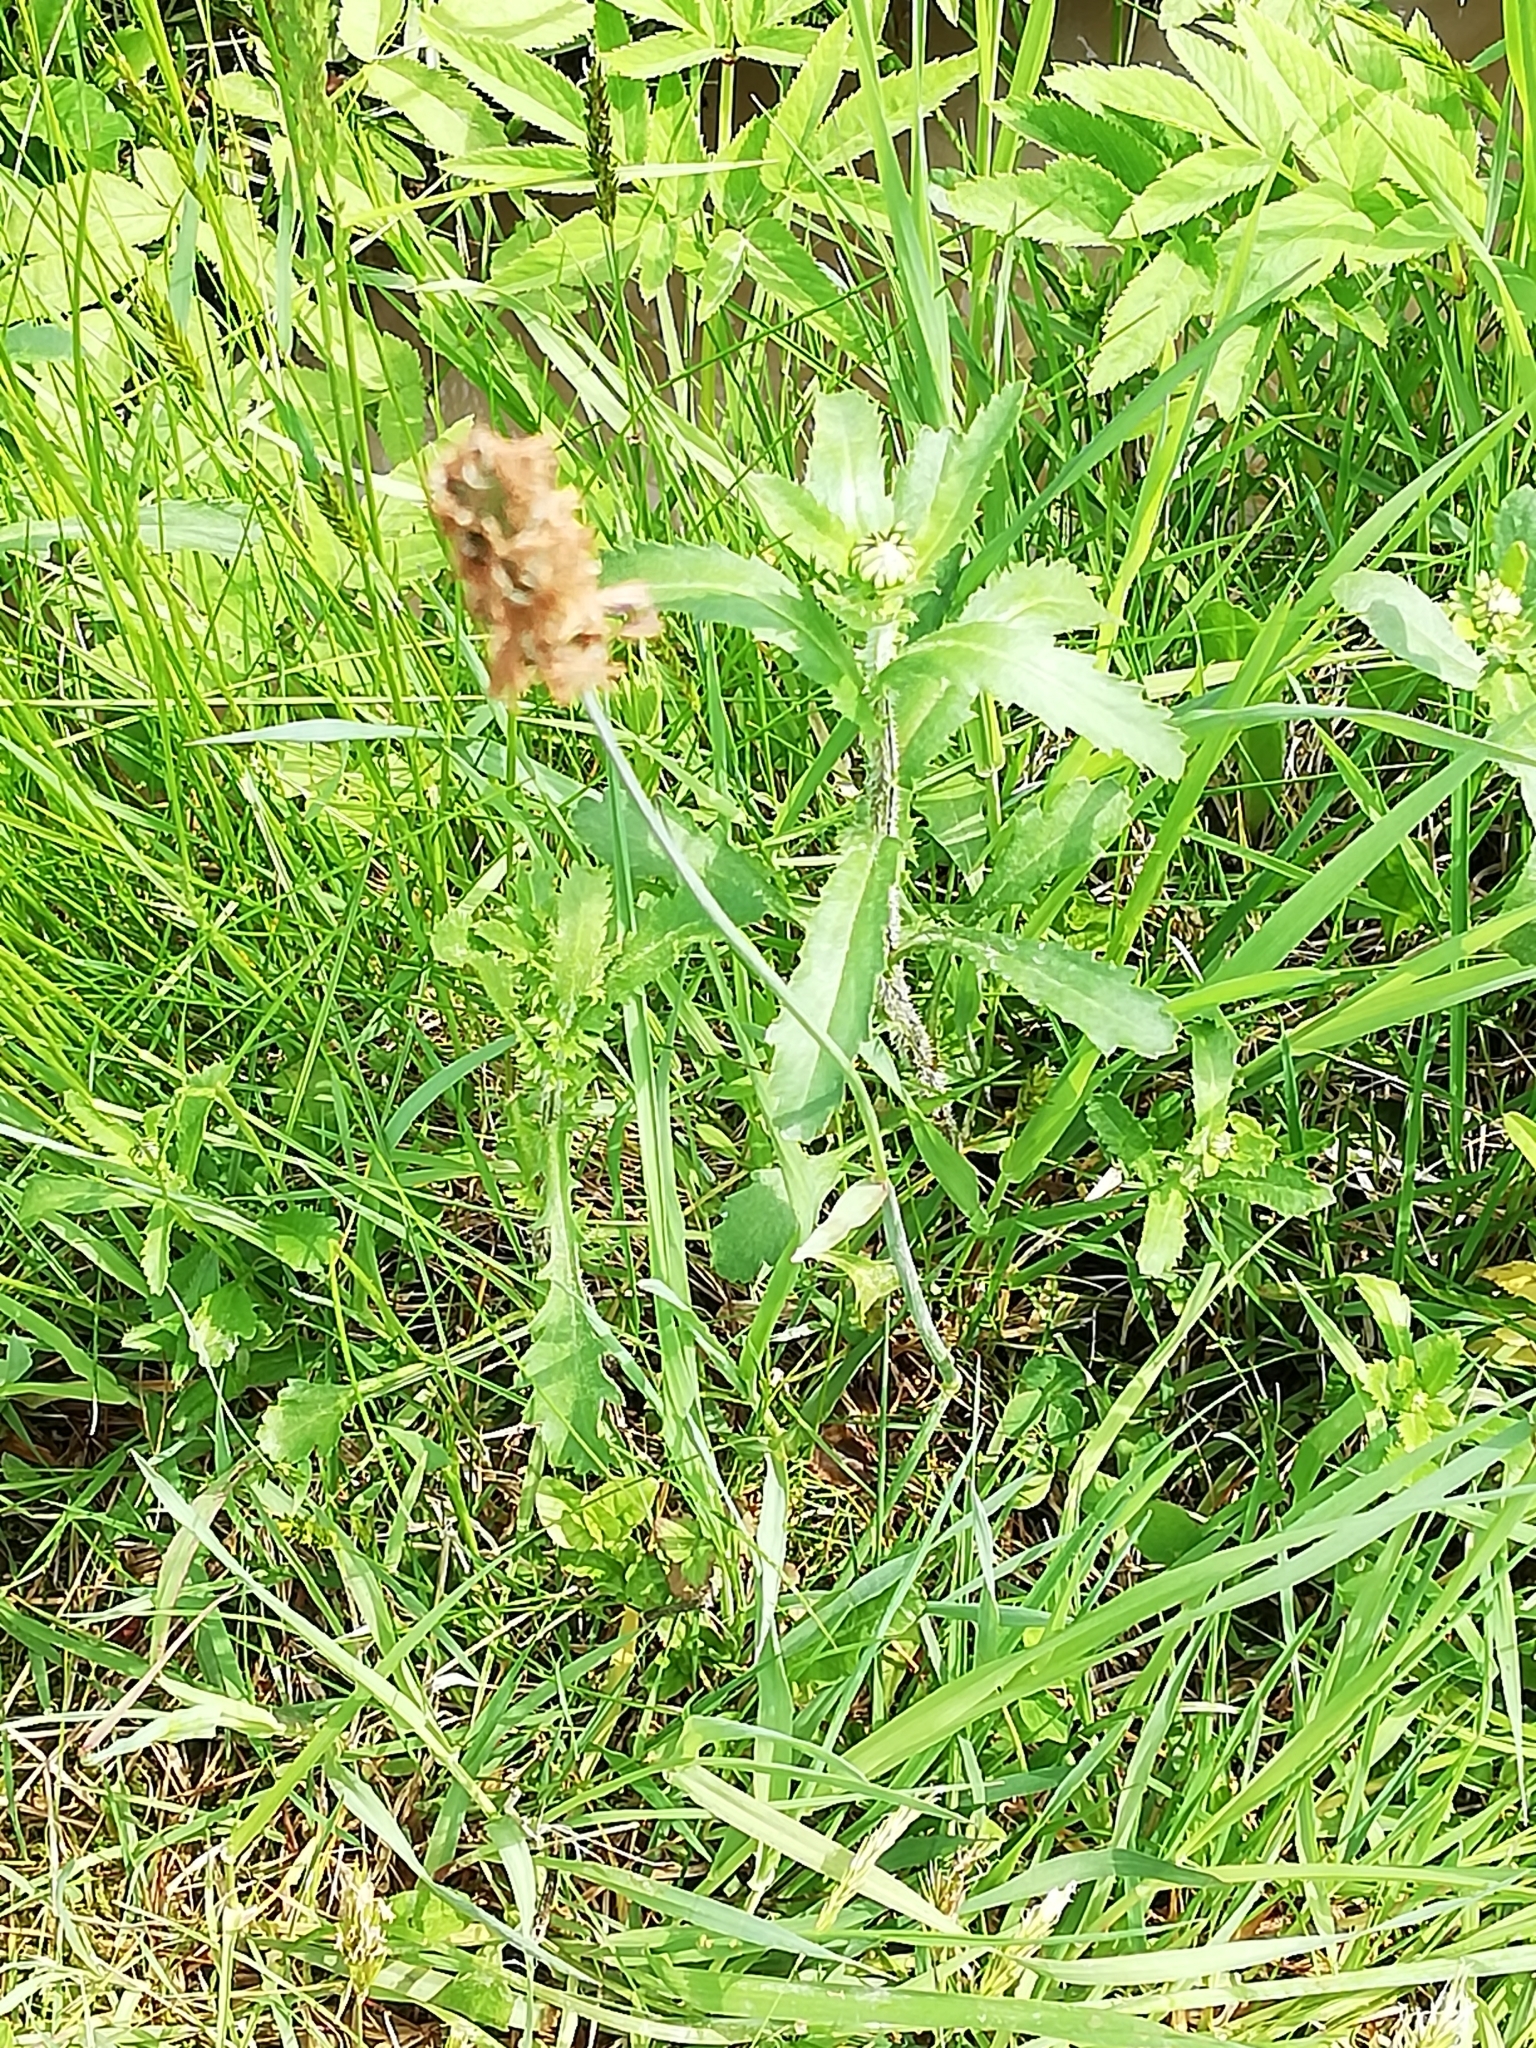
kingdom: Plantae
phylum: Tracheophyta
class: Liliopsida
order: Poales
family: Poaceae
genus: Alopecurus
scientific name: Alopecurus pratensis
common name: Meadow foxtail
